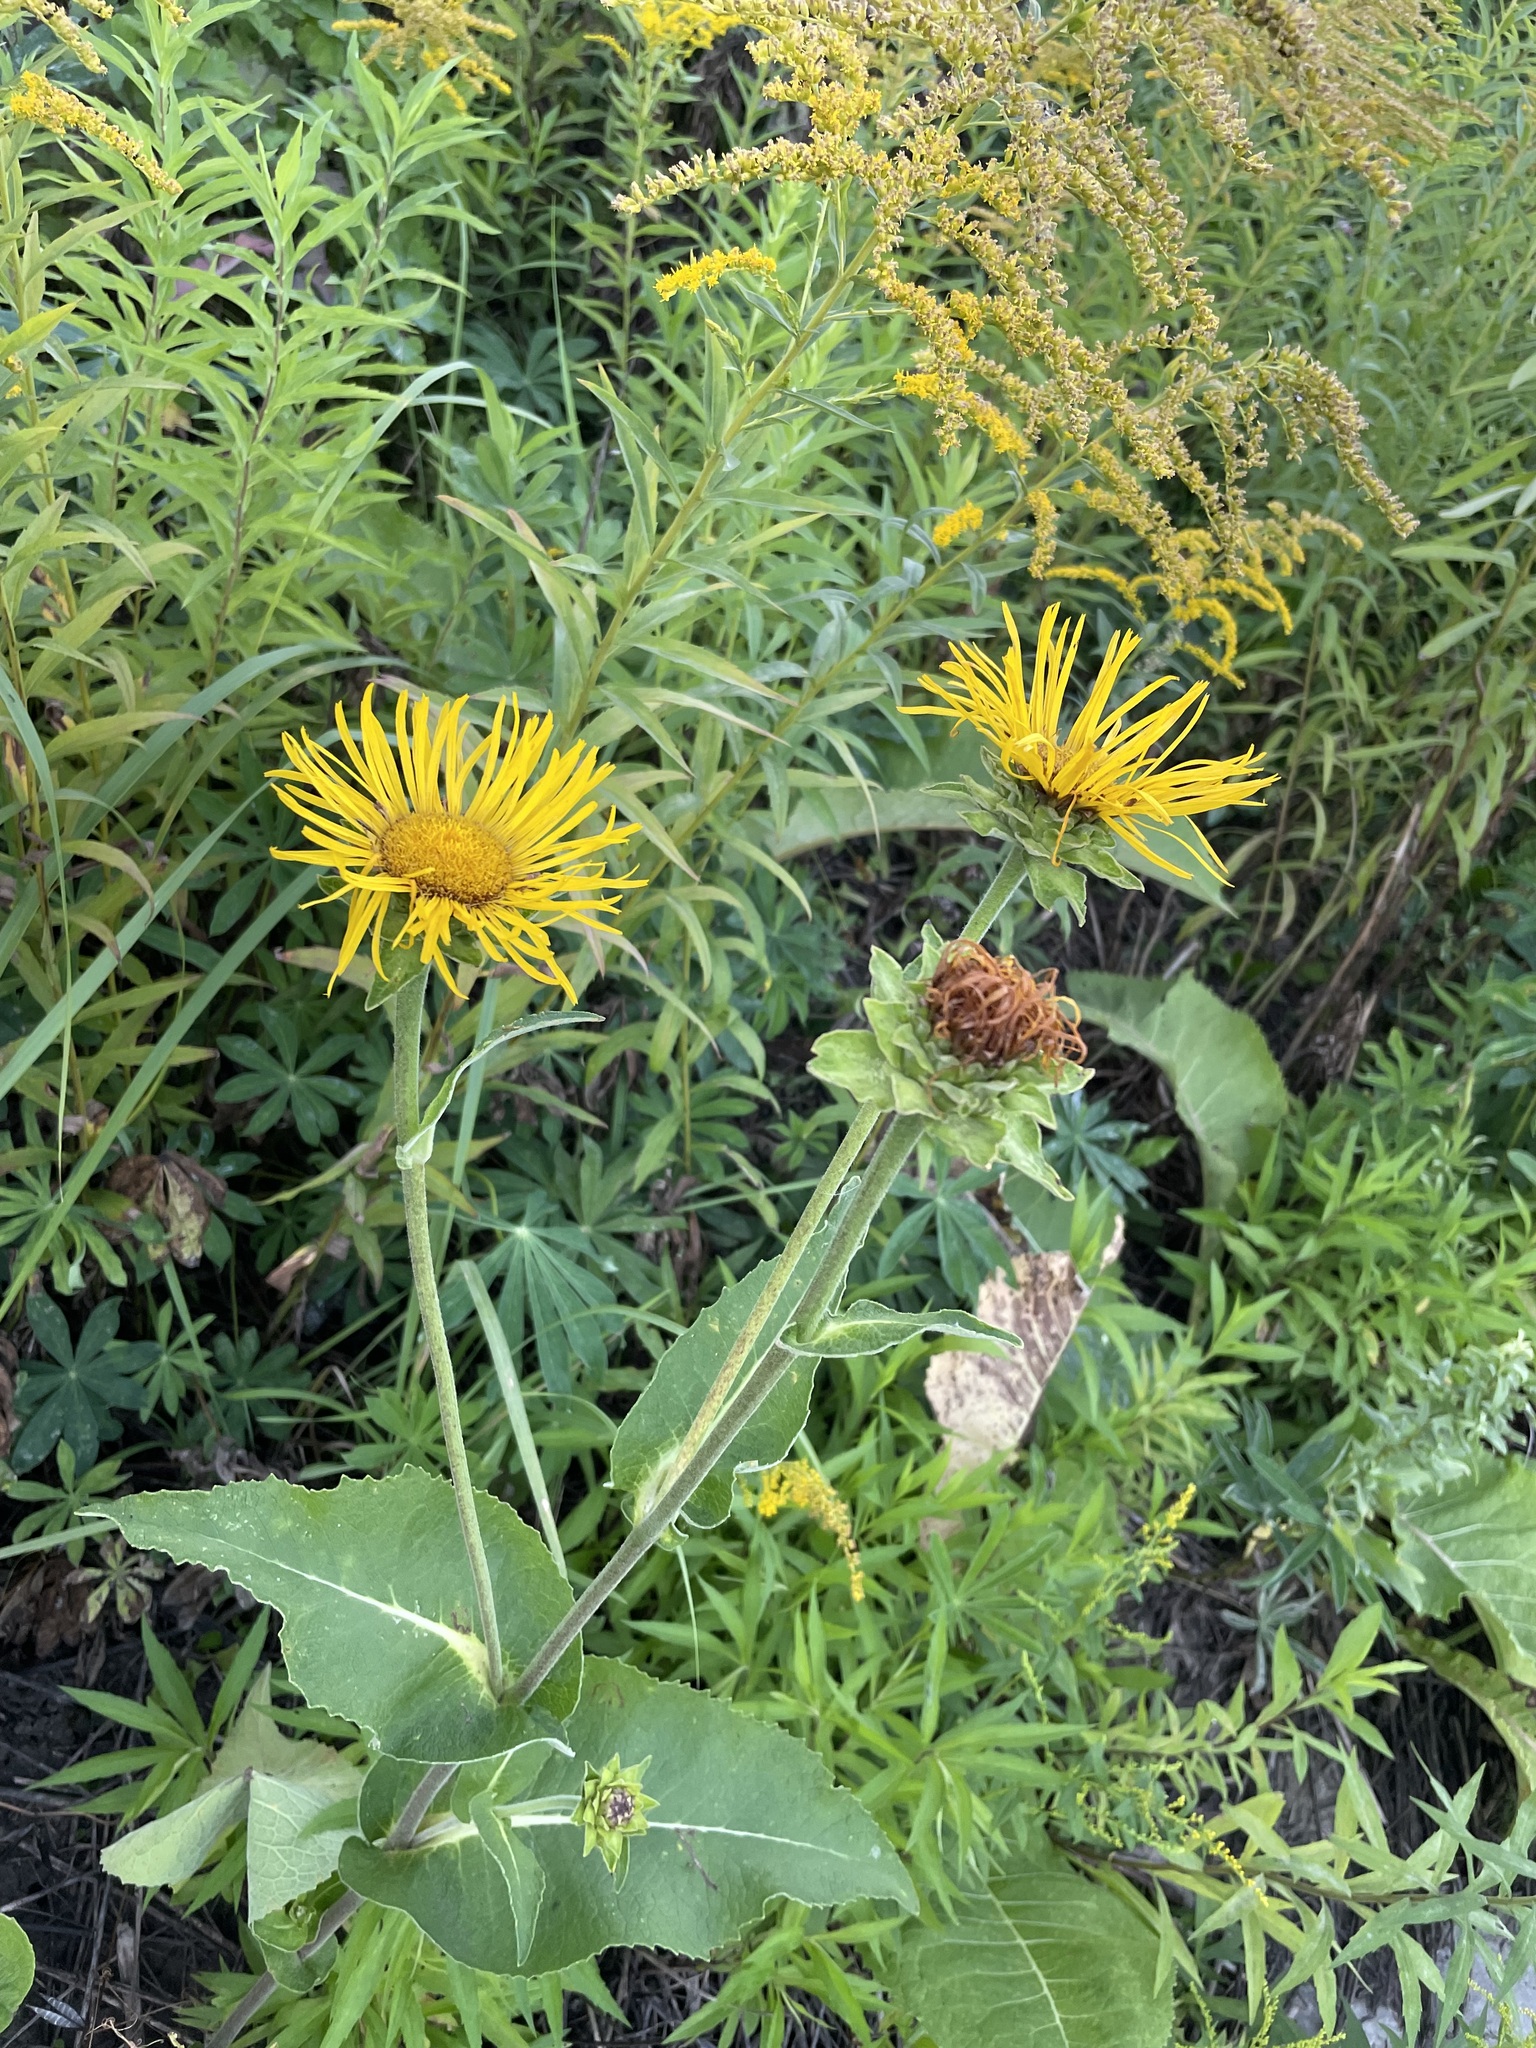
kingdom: Plantae
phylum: Tracheophyta
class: Magnoliopsida
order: Asterales
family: Asteraceae
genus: Inula
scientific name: Inula helenium
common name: Elecampane
